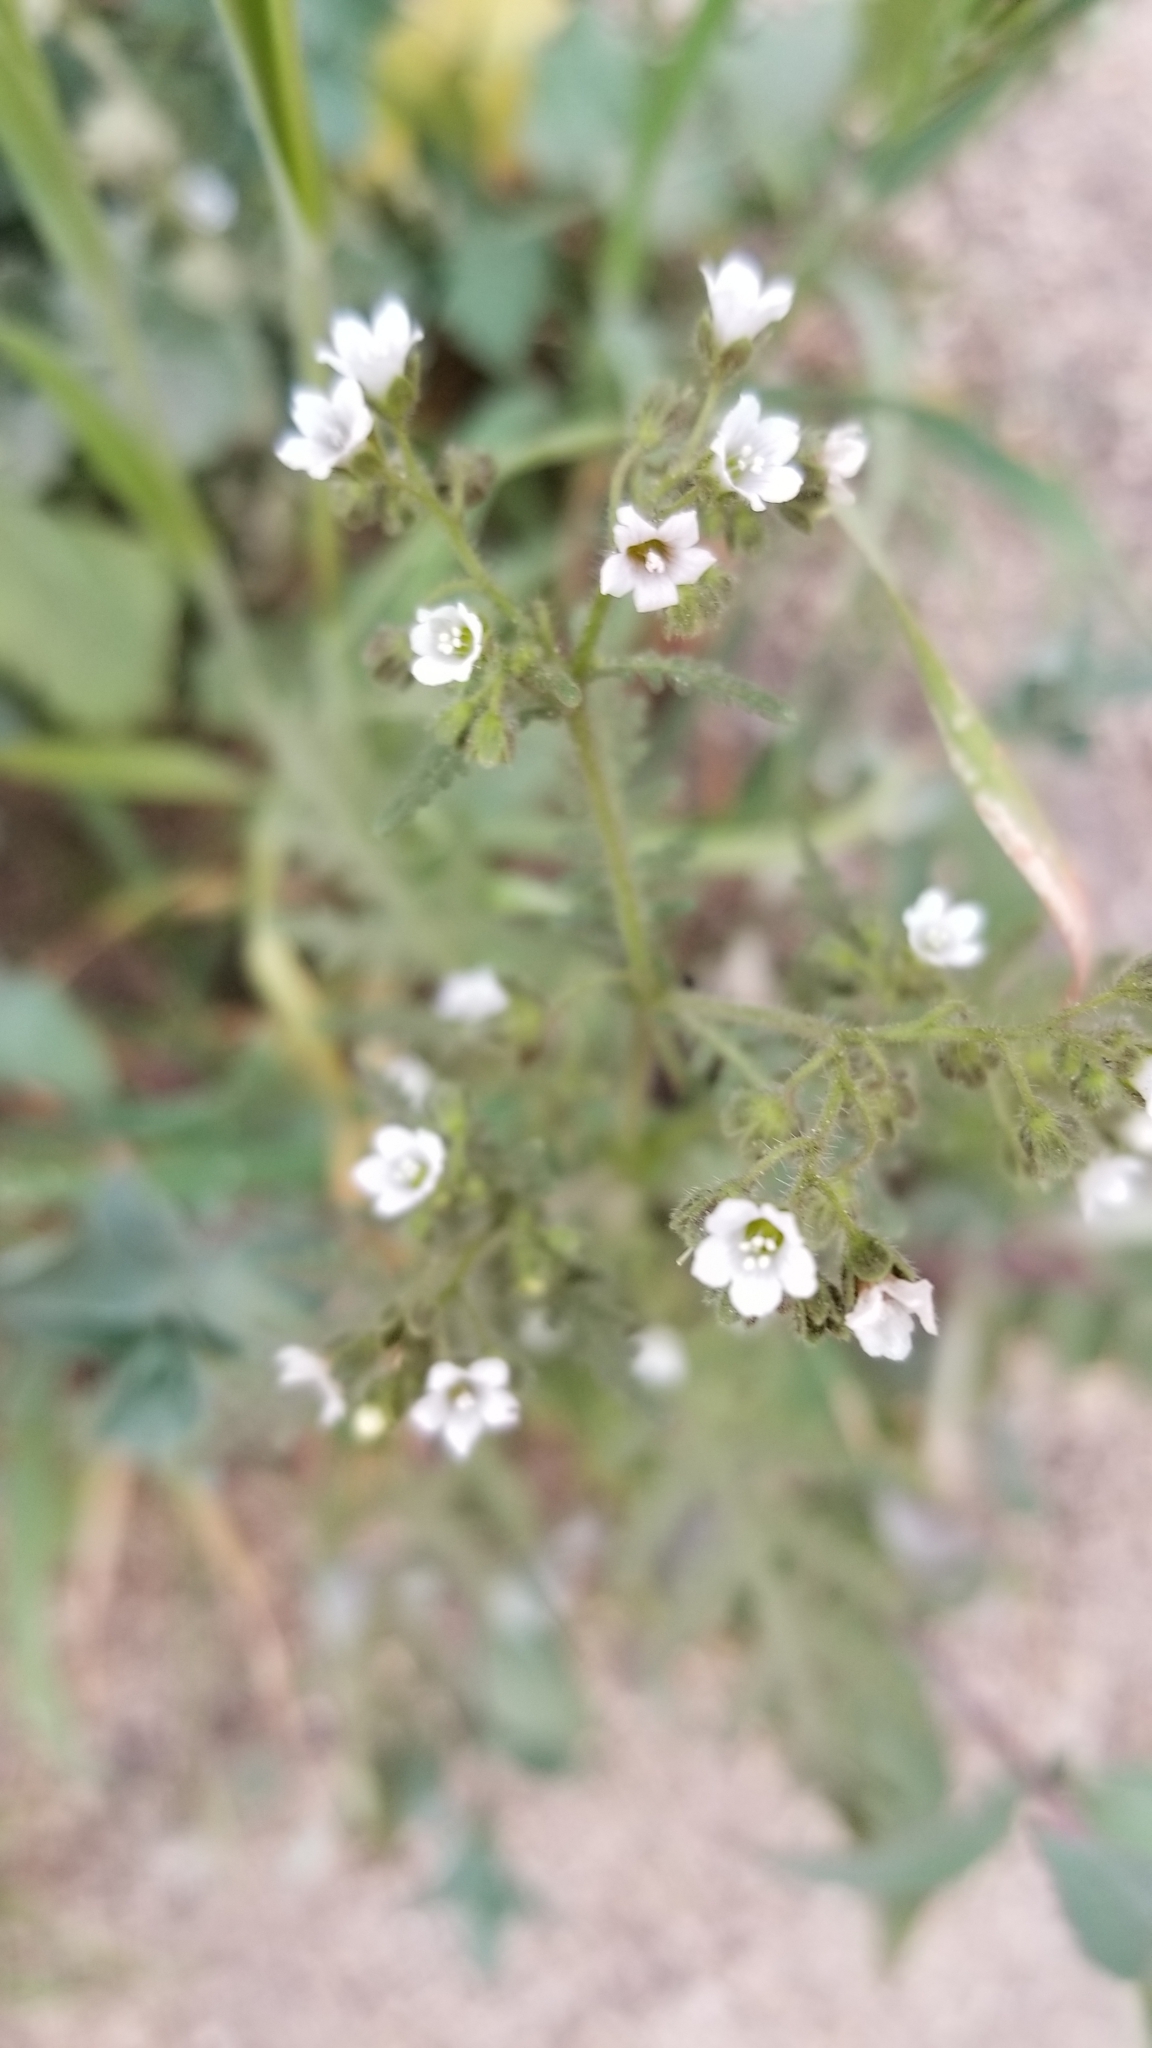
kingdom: Plantae
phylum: Tracheophyta
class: Magnoliopsida
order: Boraginales
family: Hydrophyllaceae
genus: Eucrypta
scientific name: Eucrypta chrysanthemifolia
